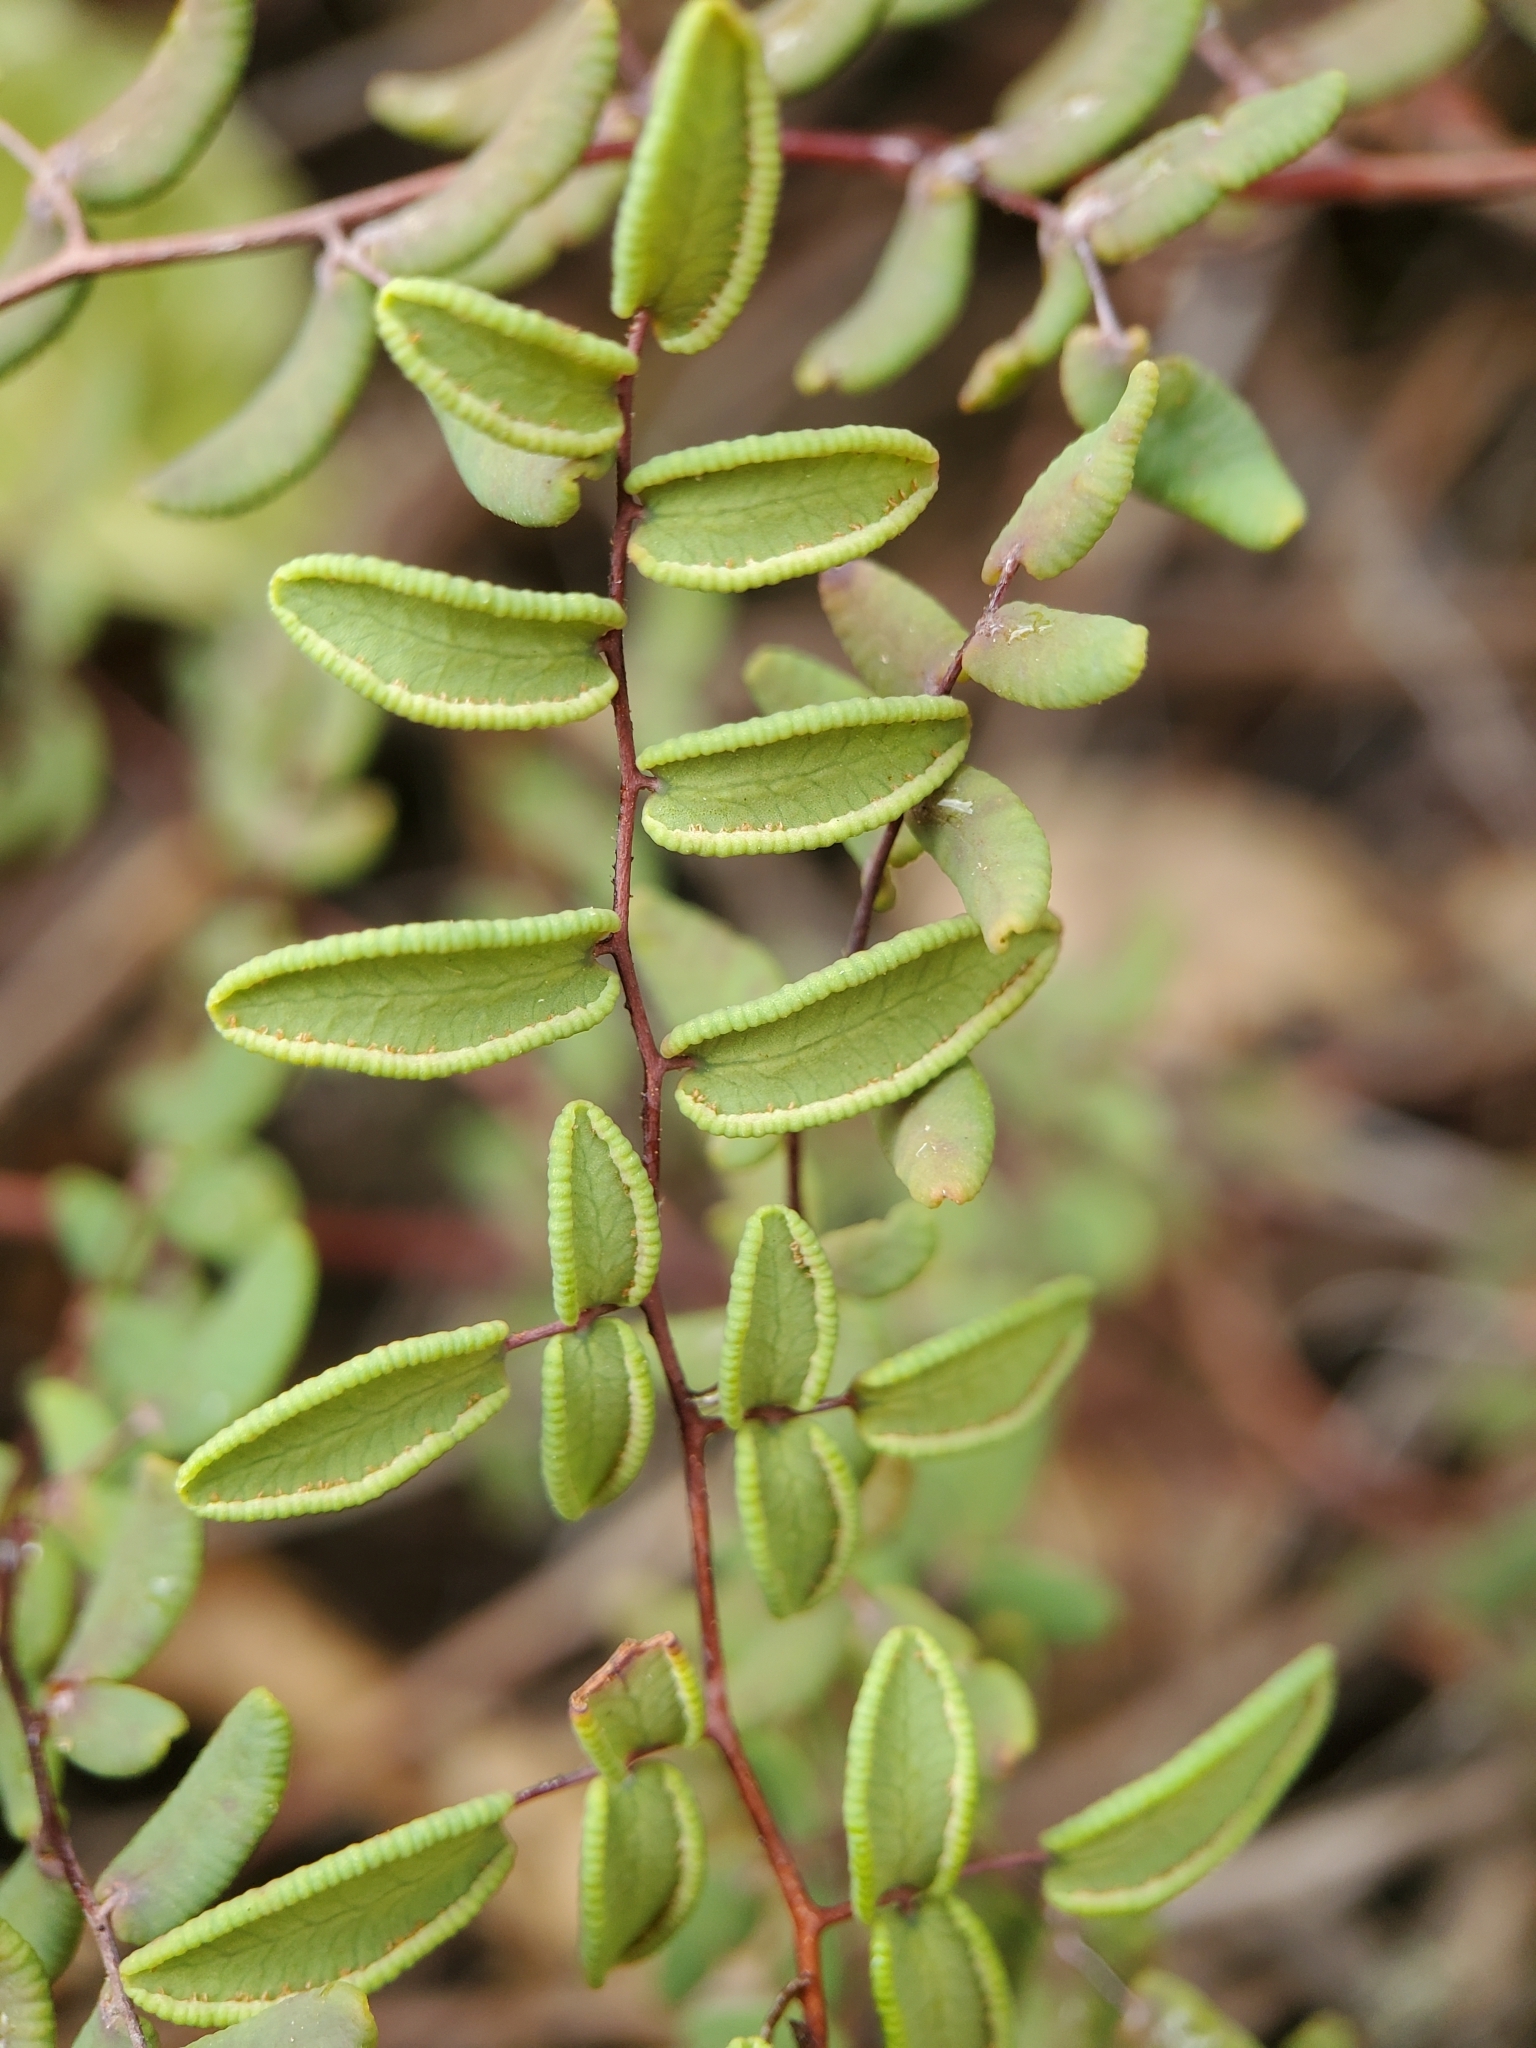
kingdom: Plantae
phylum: Tracheophyta
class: Polypodiopsida
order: Polypodiales
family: Pteridaceae
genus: Pellaea
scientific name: Pellaea andromedifolia
